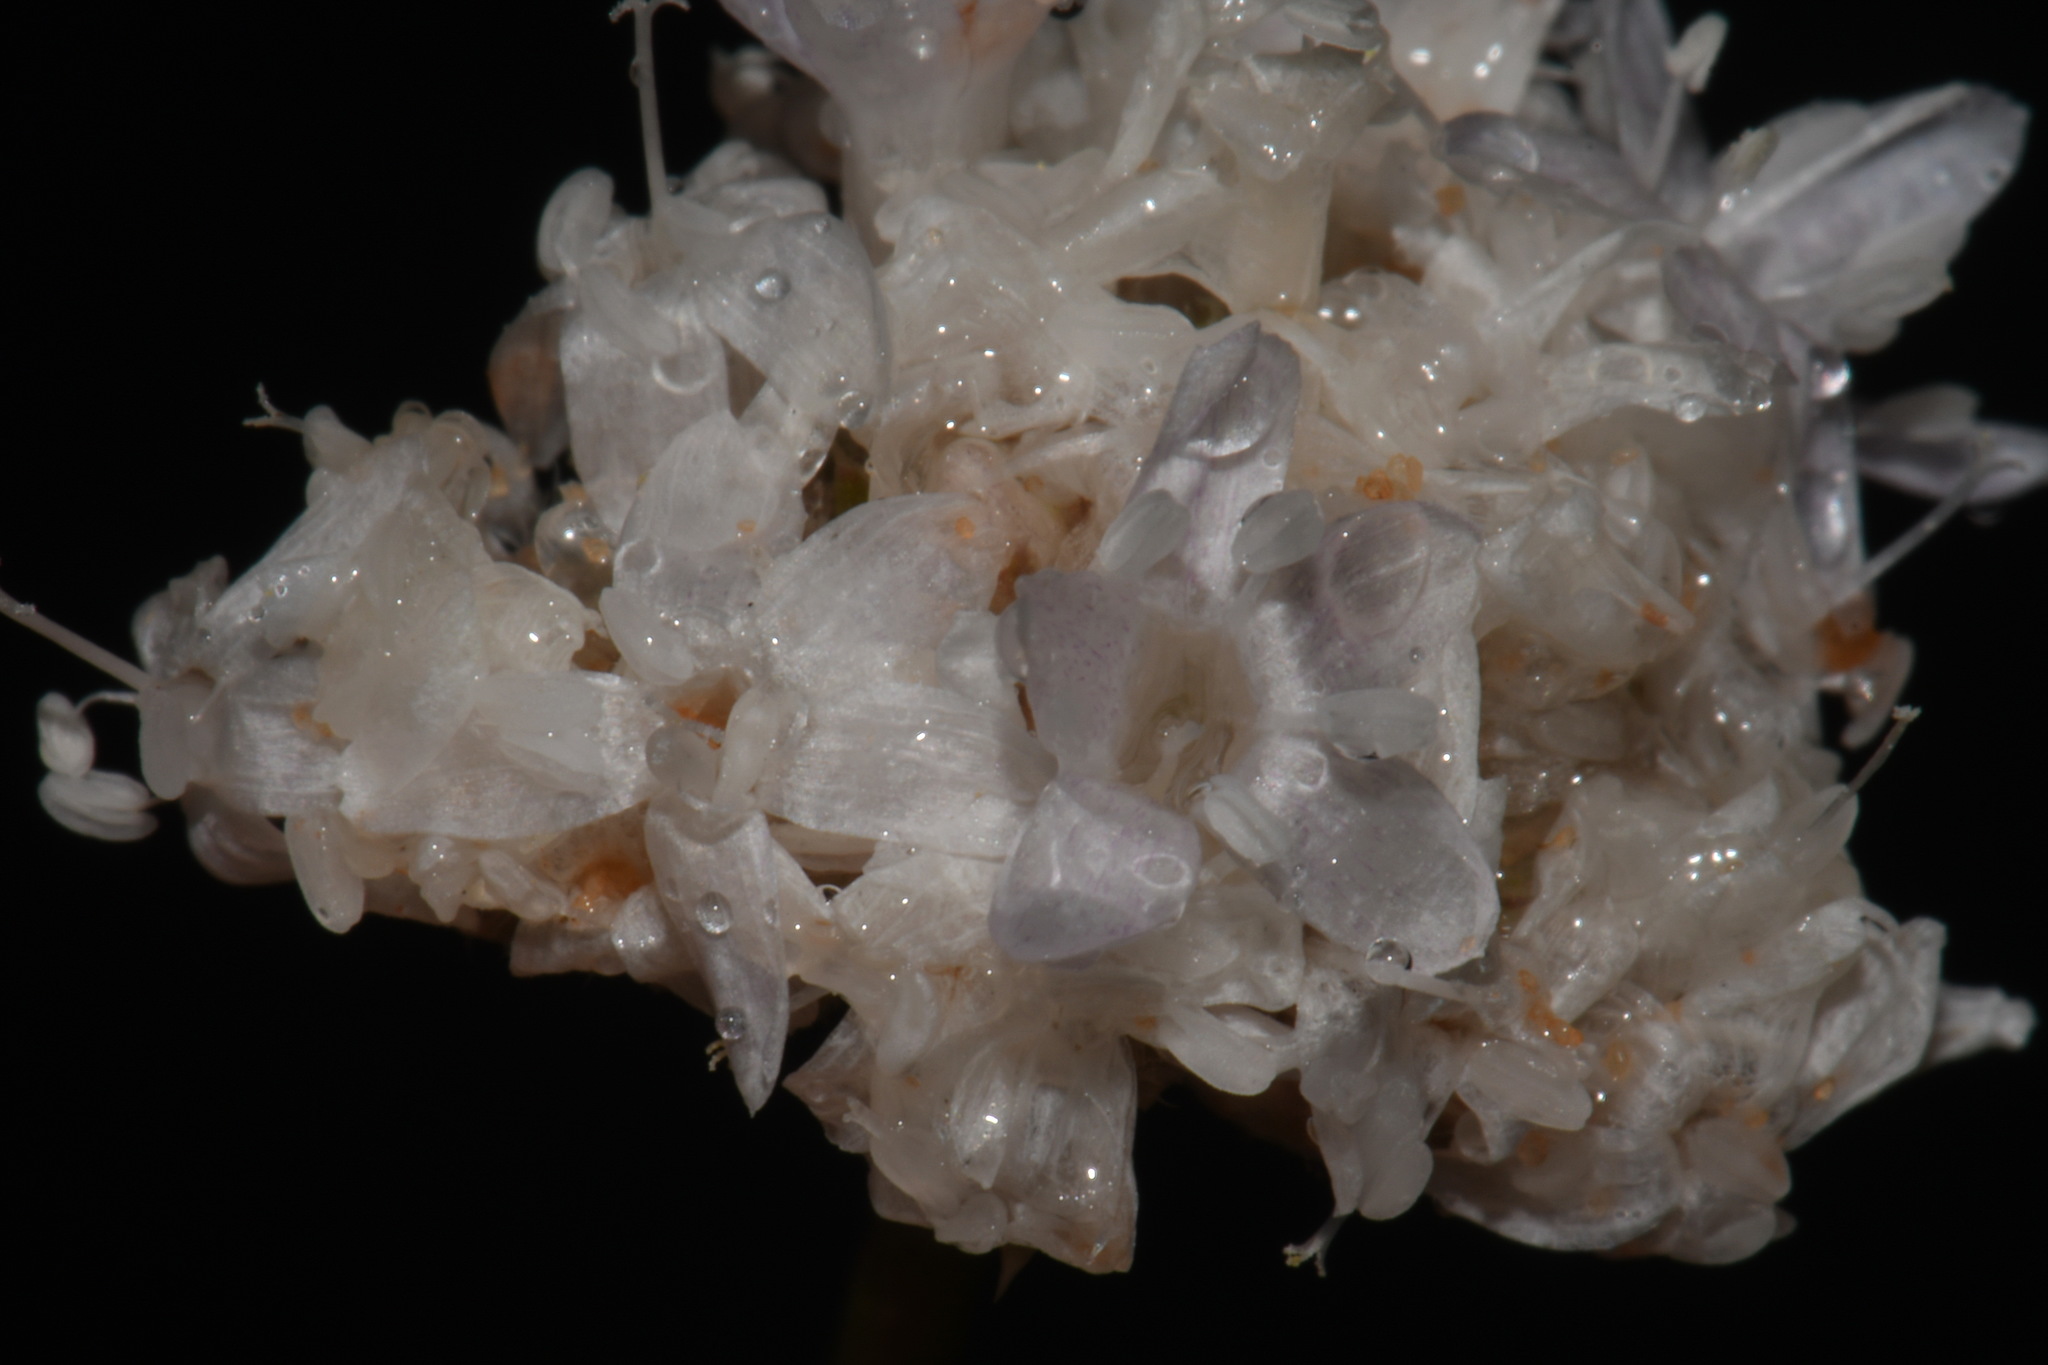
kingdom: Plantae
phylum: Tracheophyta
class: Magnoliopsida
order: Ericales
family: Polemoniaceae
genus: Ipomopsis
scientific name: Ipomopsis congesta
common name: Ball-head gilia
